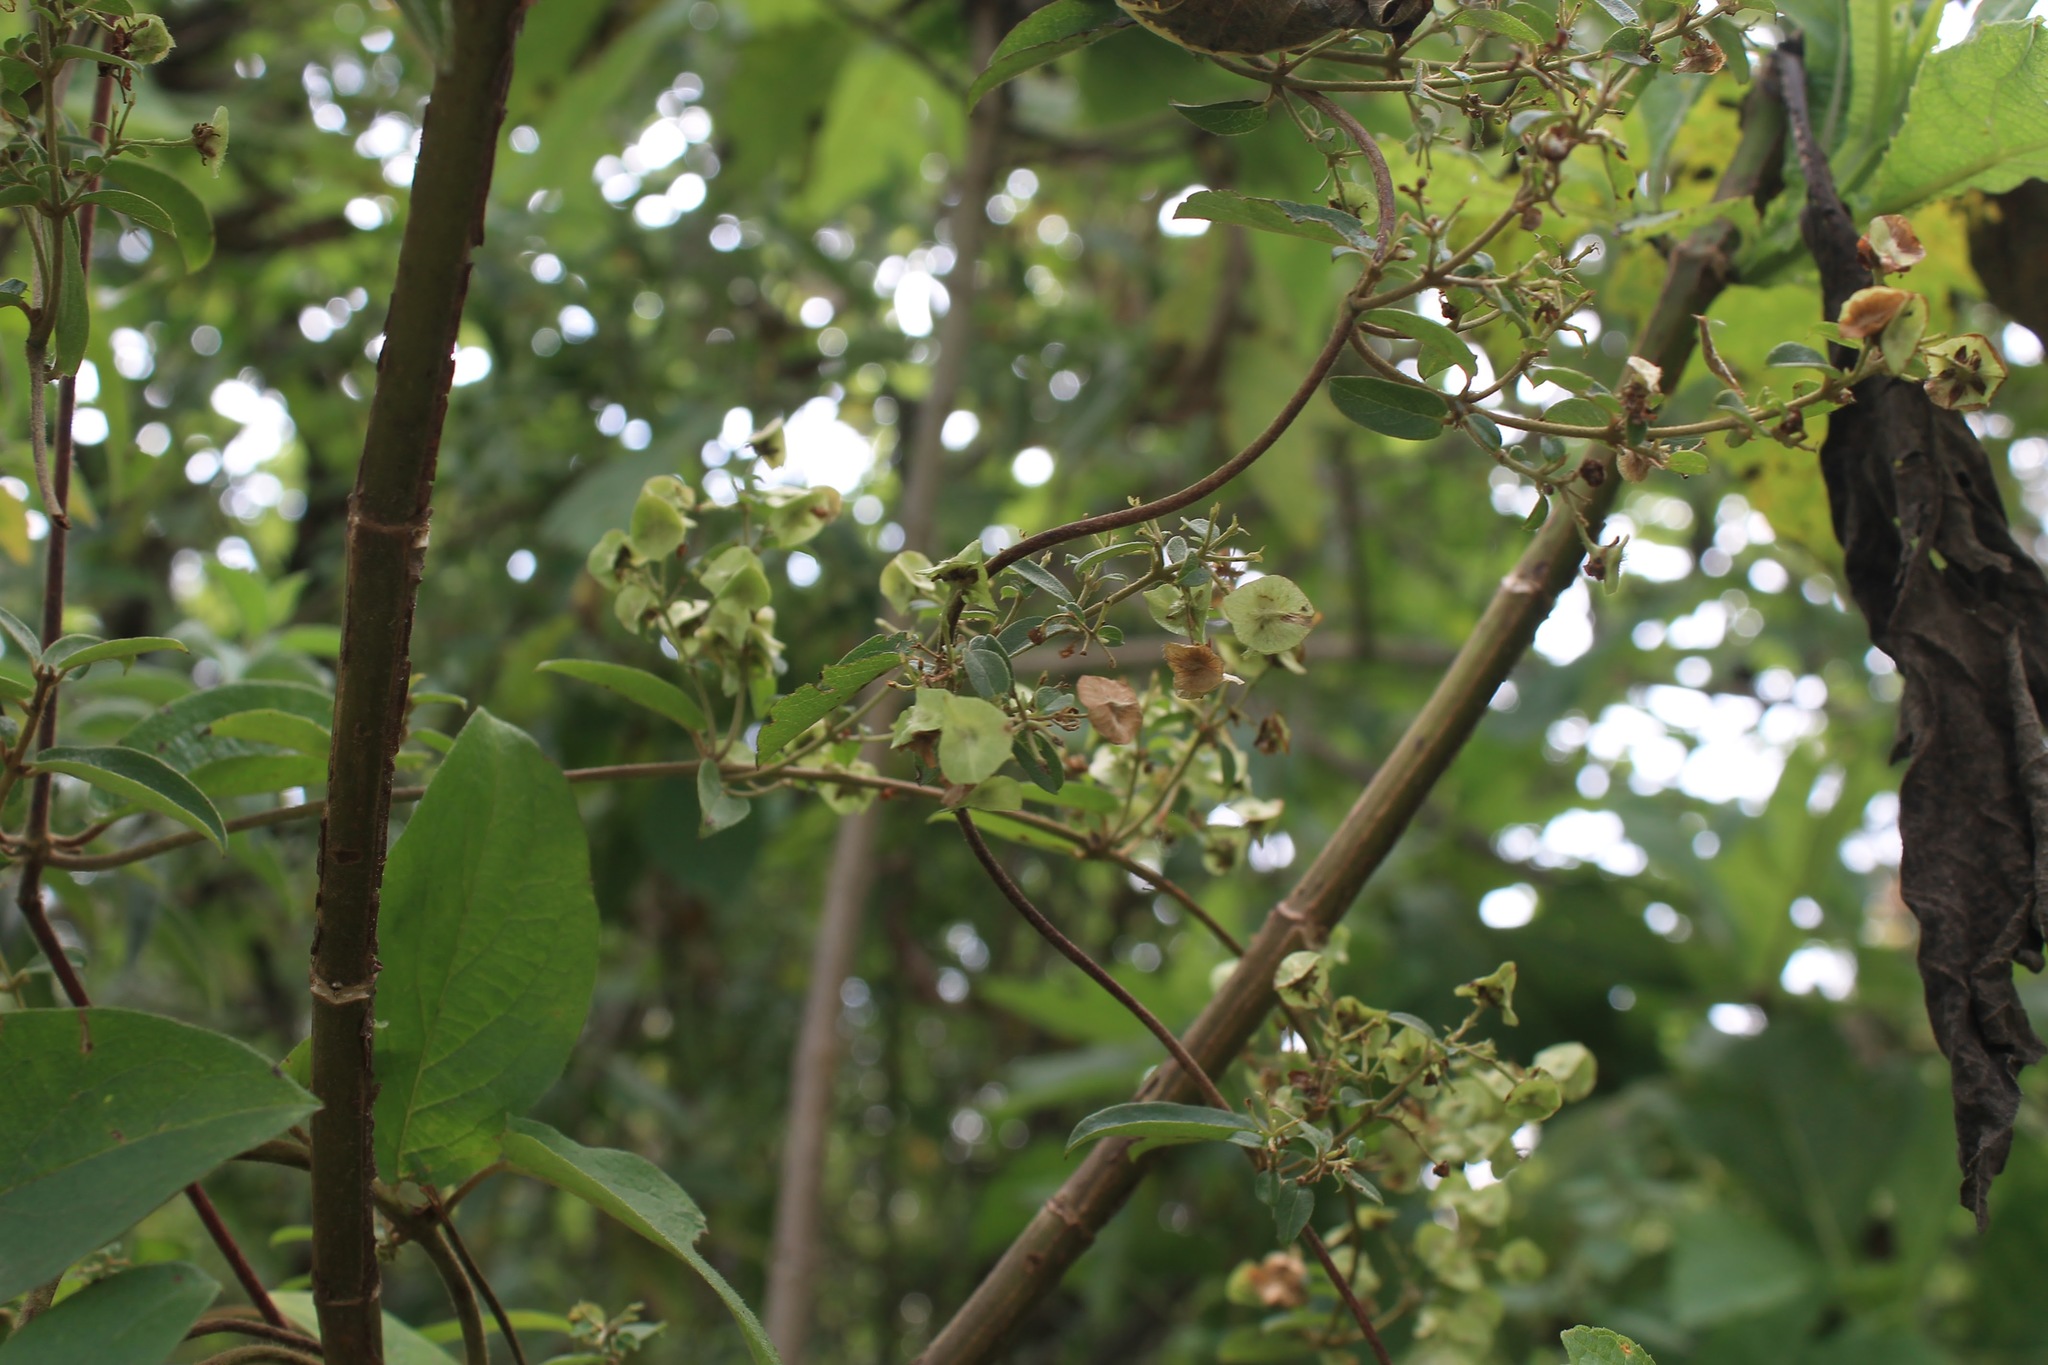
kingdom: Plantae
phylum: Tracheophyta
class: Magnoliopsida
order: Malpighiales
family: Malpighiaceae
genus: Gaudichaudia
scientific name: Gaudichaudia mucronata
